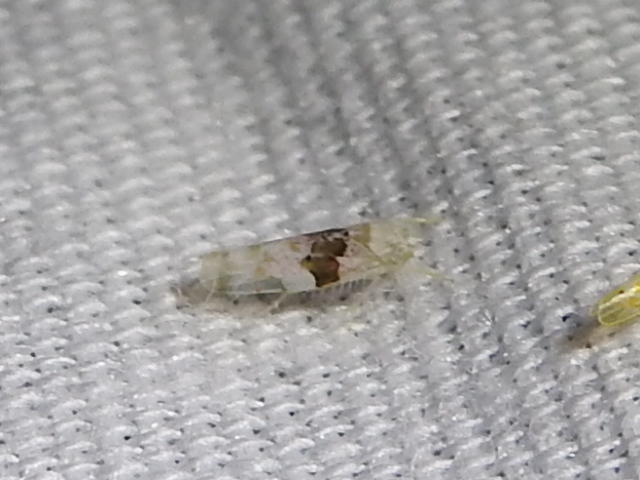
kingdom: Animalia
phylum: Arthropoda
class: Insecta
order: Hemiptera
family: Cicadellidae
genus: Hymetta
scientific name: Hymetta balteata
